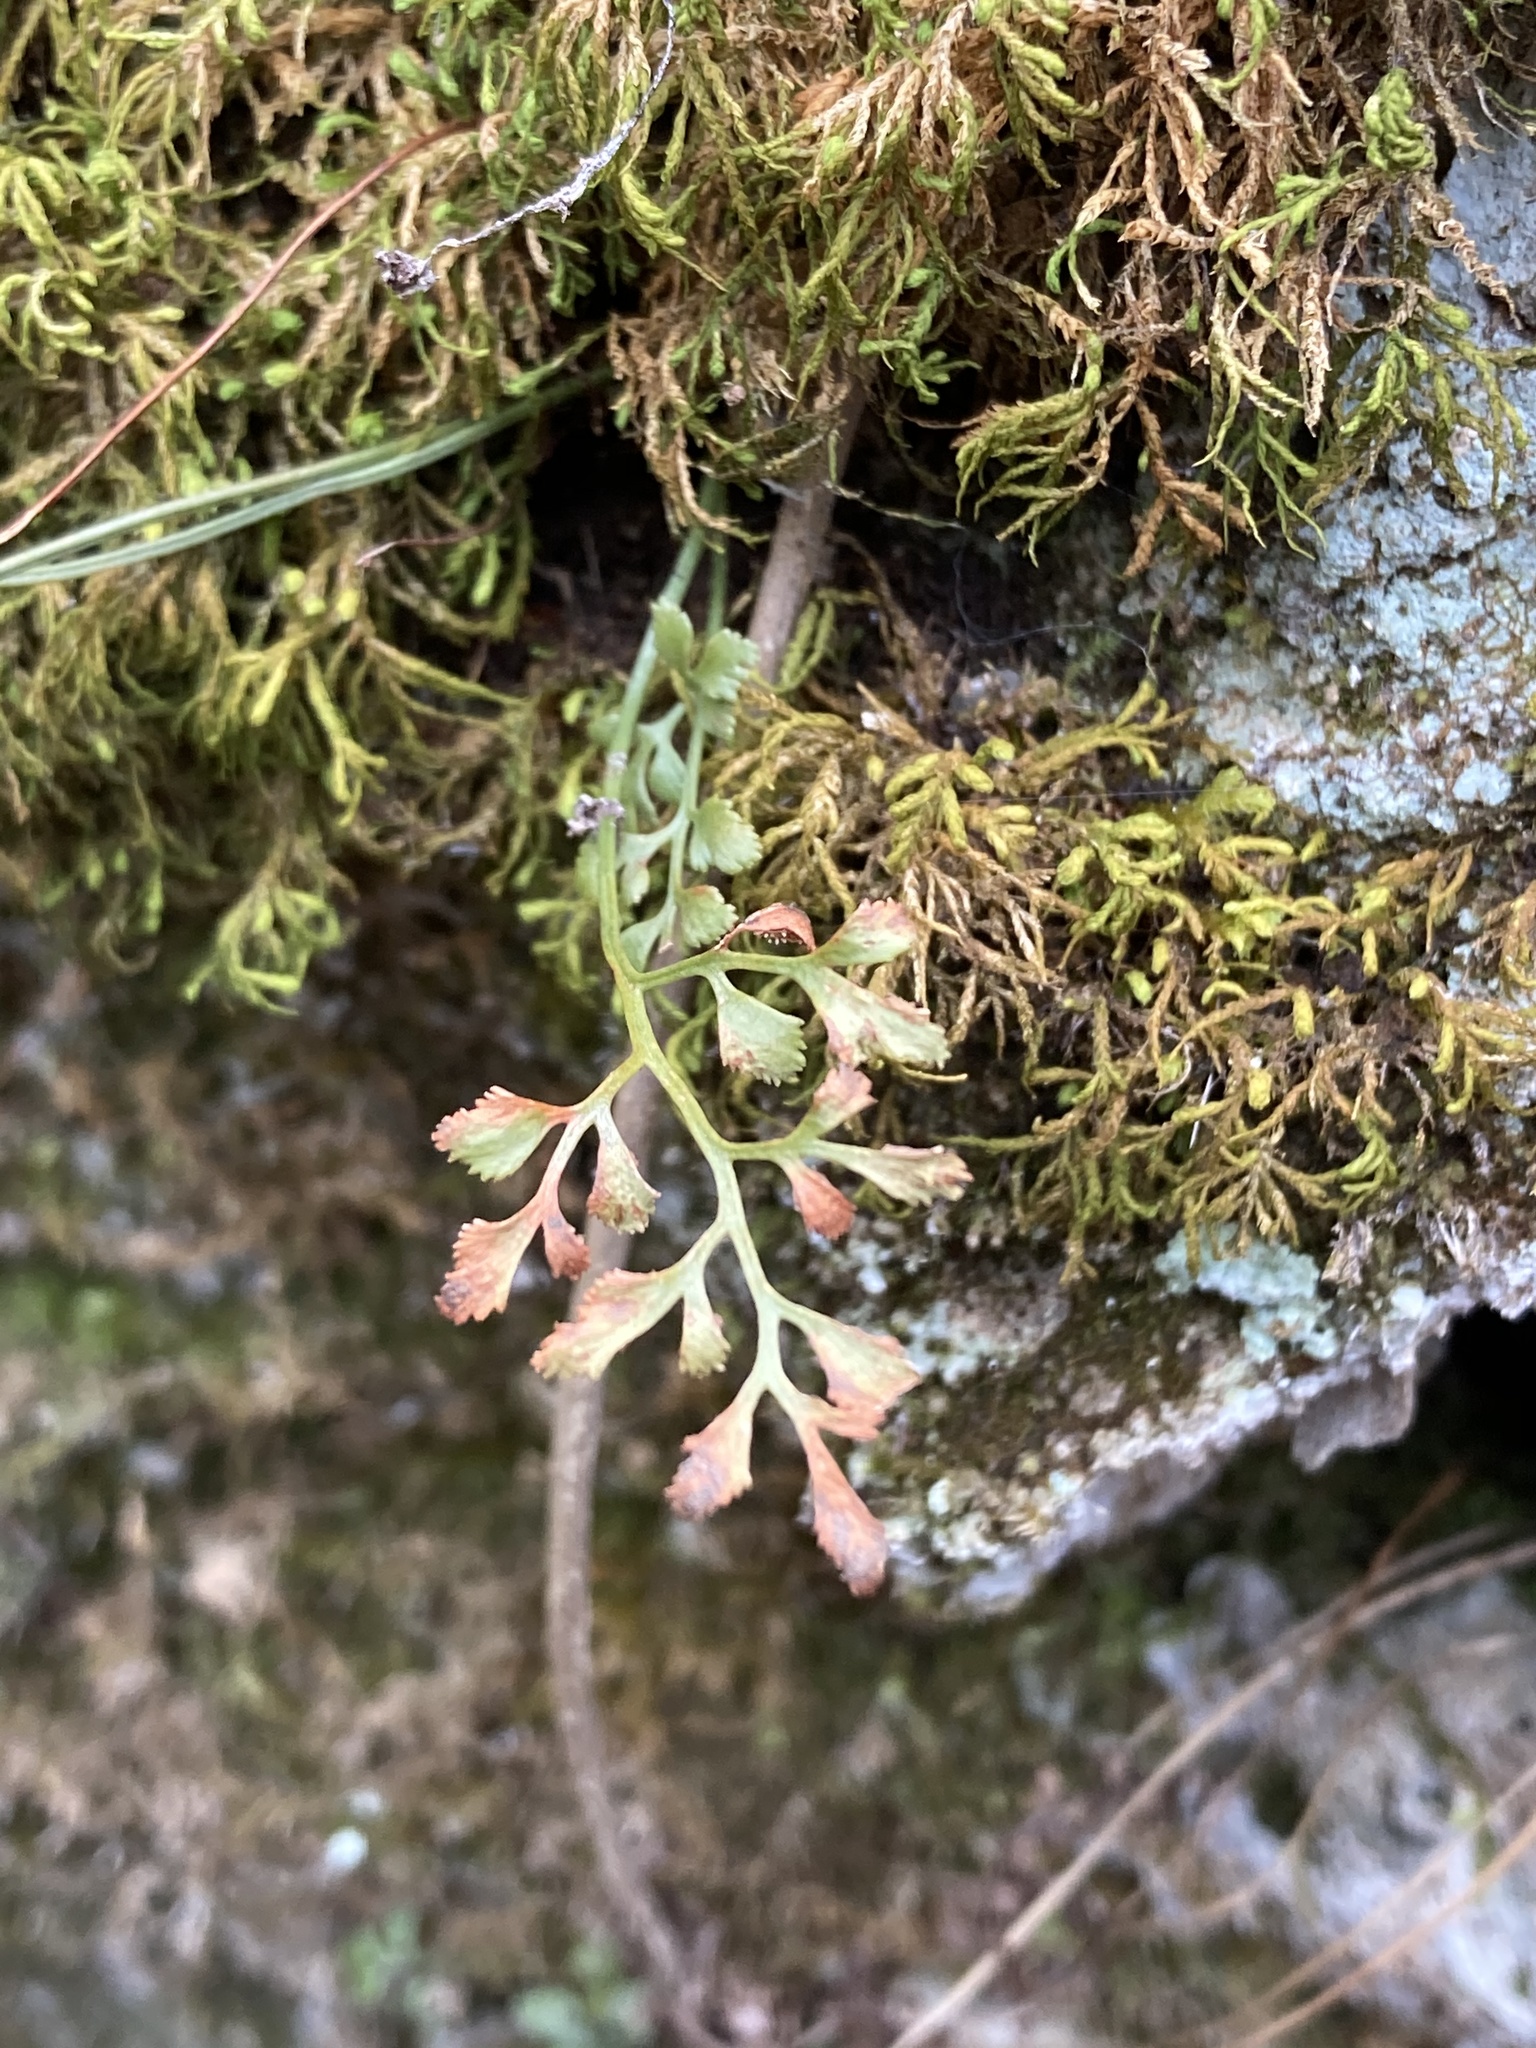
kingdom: Plantae
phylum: Tracheophyta
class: Polypodiopsida
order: Polypodiales
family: Aspleniaceae
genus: Asplenium
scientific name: Asplenium ruta-muraria
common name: Wall-rue
